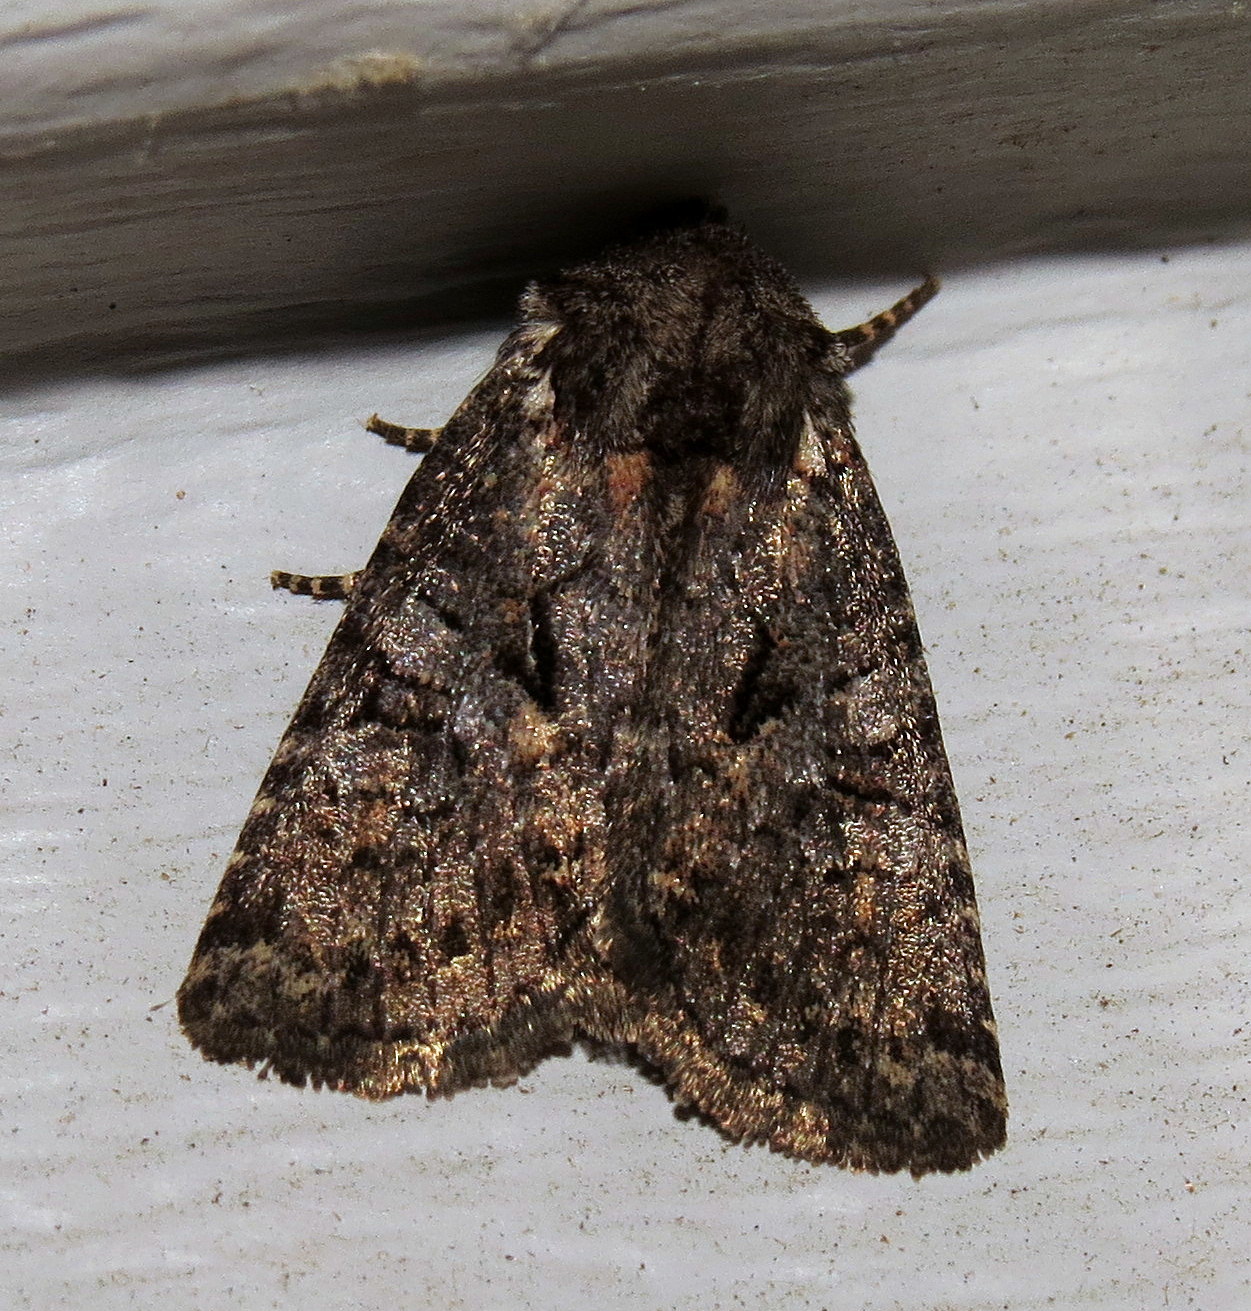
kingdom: Animalia
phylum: Arthropoda
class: Insecta
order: Lepidoptera
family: Noctuidae
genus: Orthodes
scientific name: Orthodes detracta
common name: Disparaged arches moth
